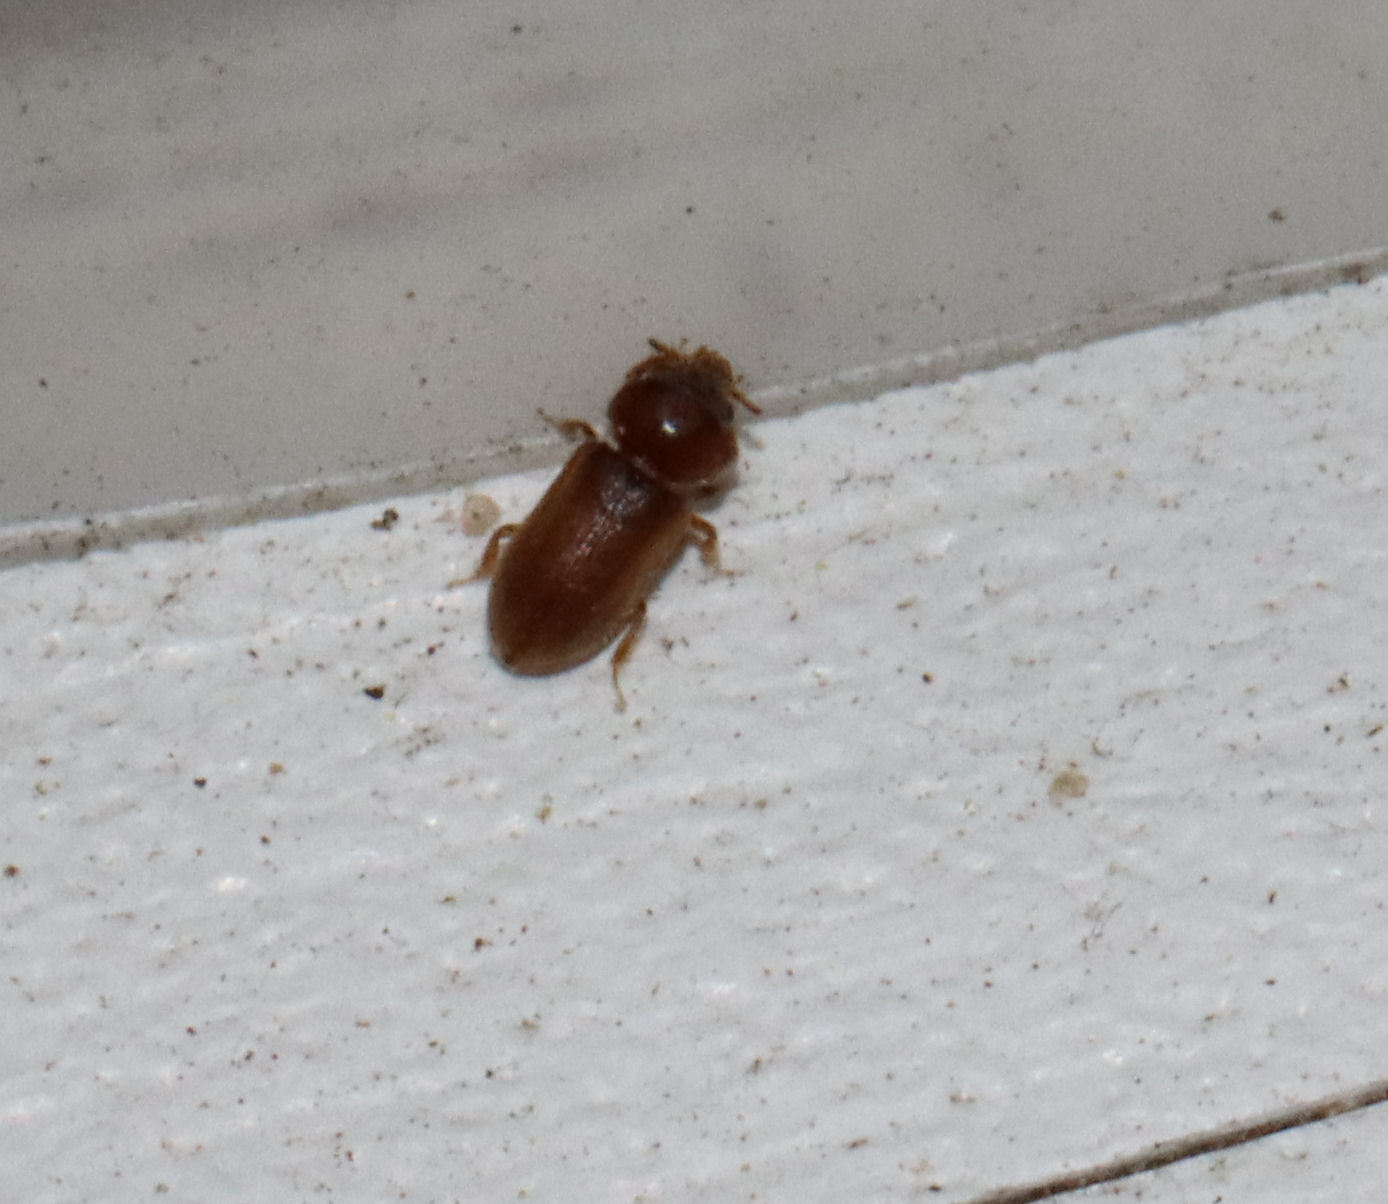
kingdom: Animalia
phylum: Arthropoda
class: Insecta
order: Coleoptera
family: Heteroceridae
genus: Tropicus
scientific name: Tropicus pusillus
